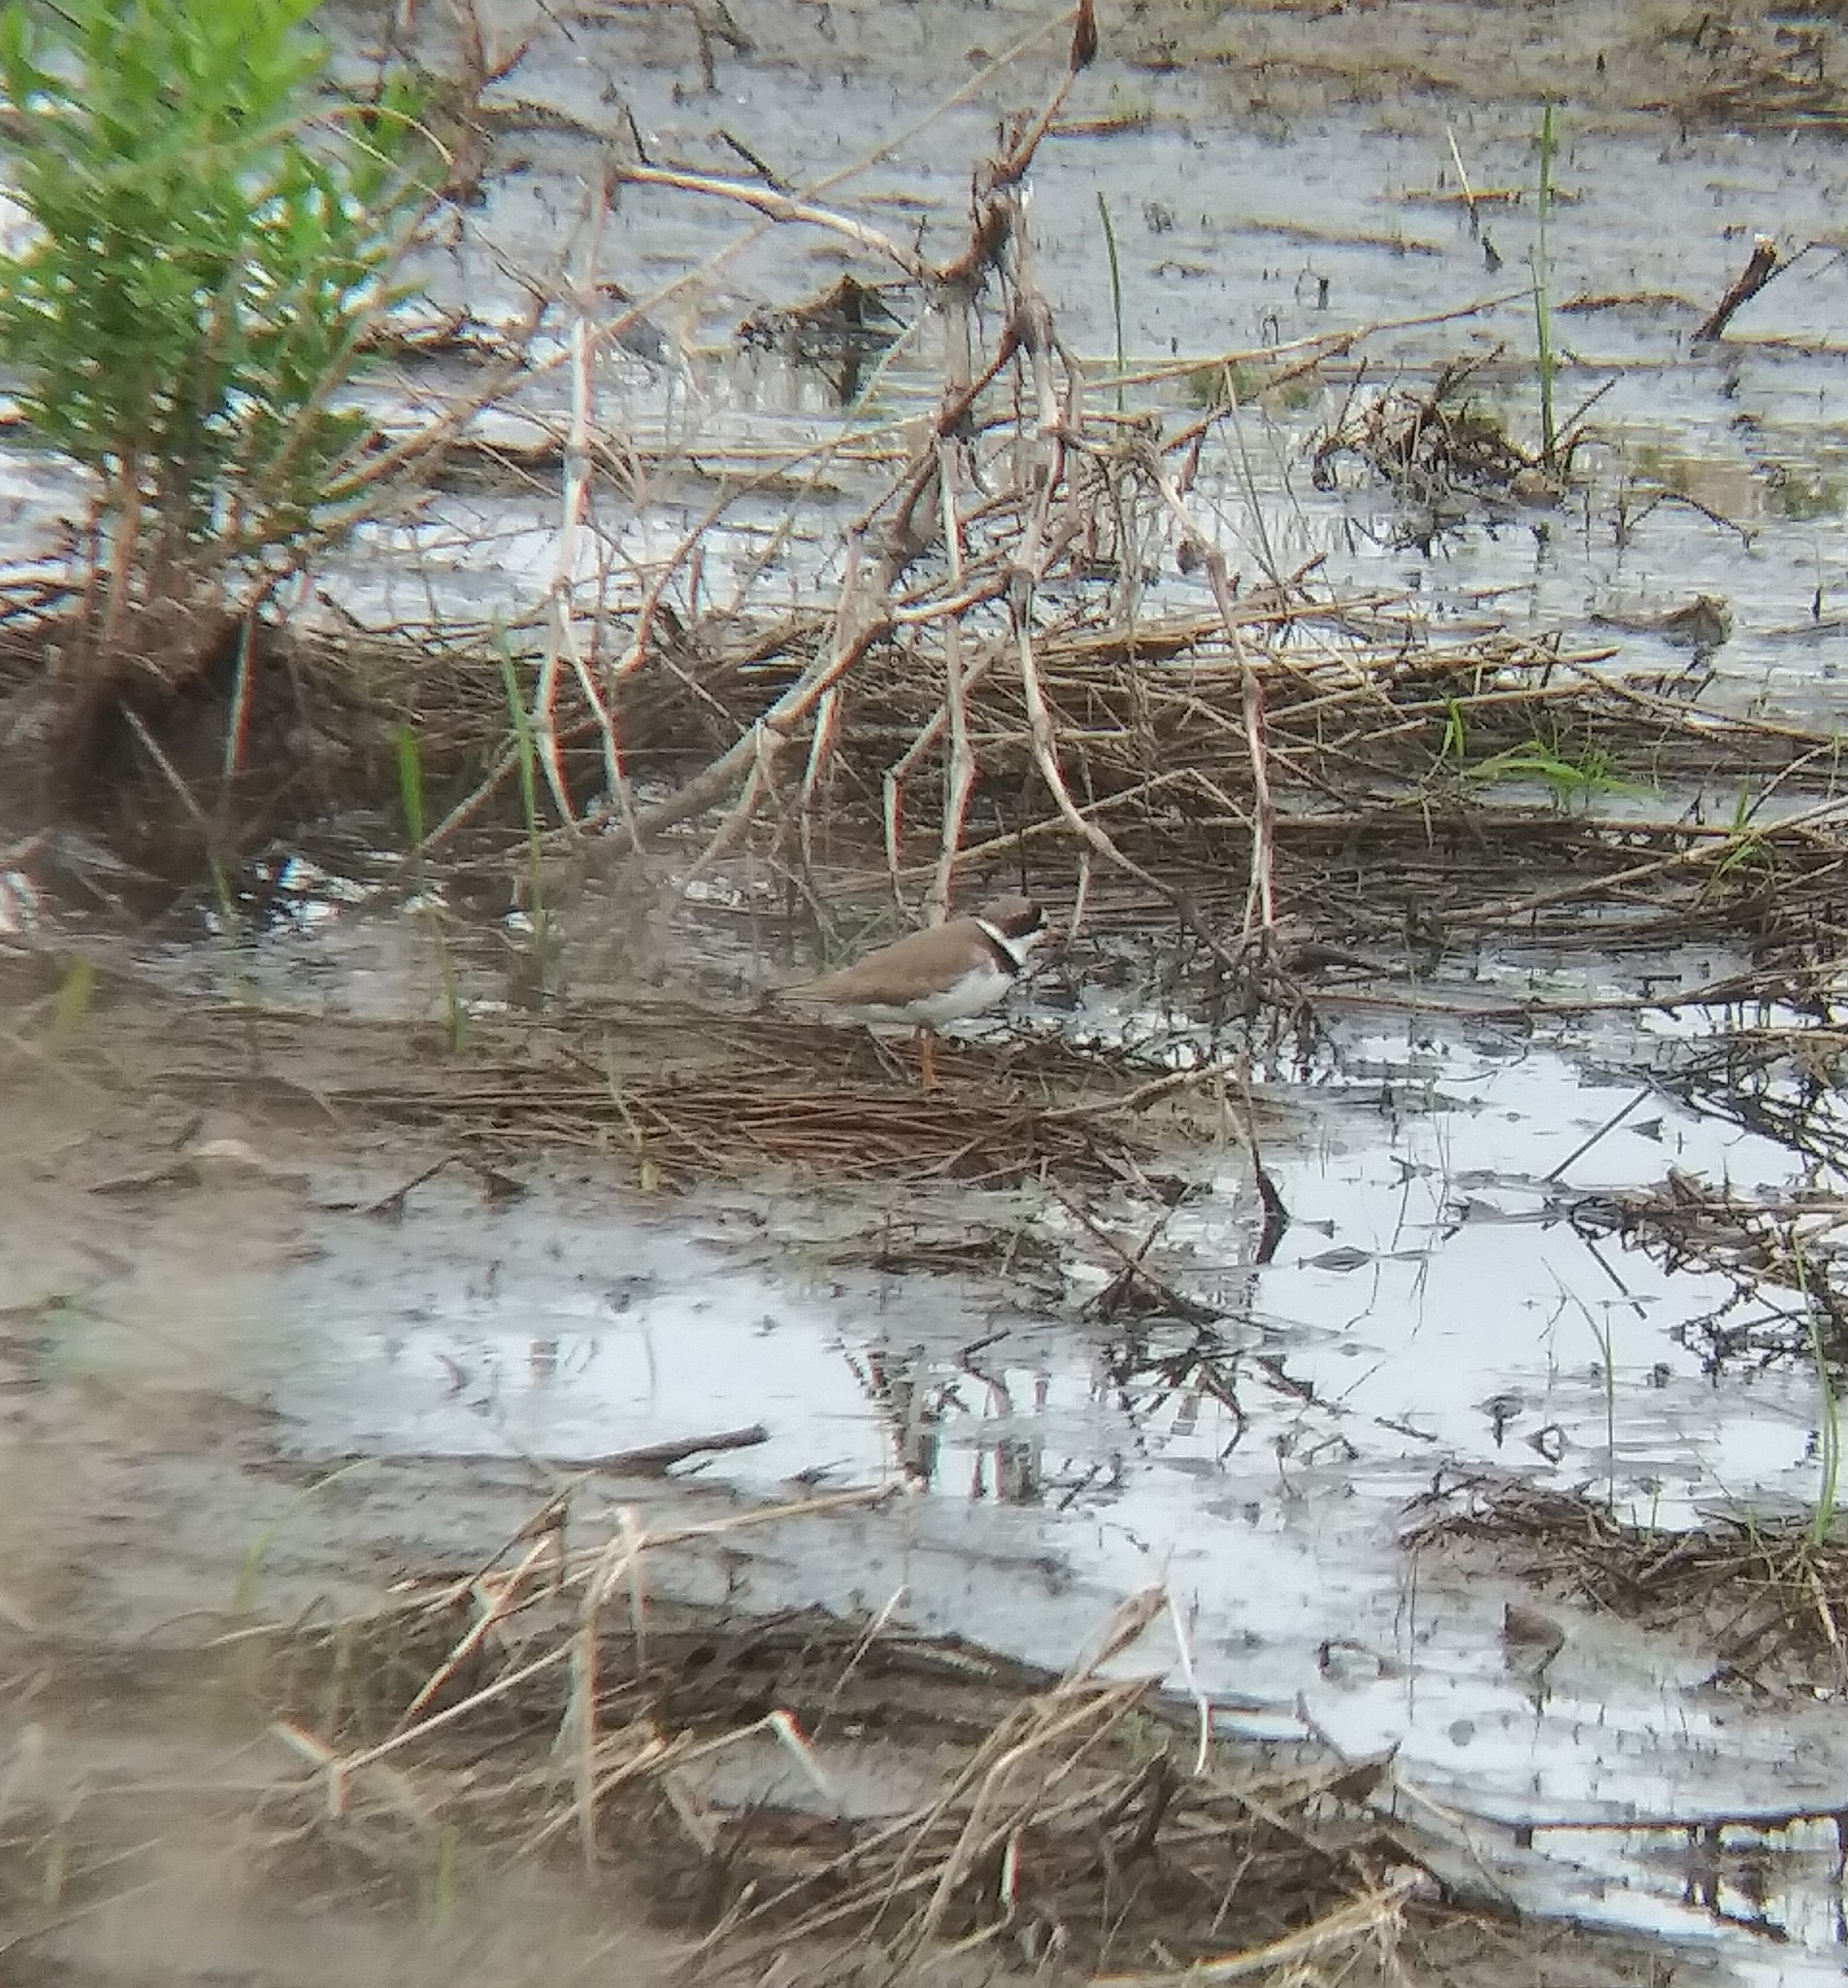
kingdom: Animalia
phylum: Chordata
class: Aves
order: Charadriiformes
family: Charadriidae
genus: Charadrius
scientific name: Charadrius semipalmatus
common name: Semipalmated plover
